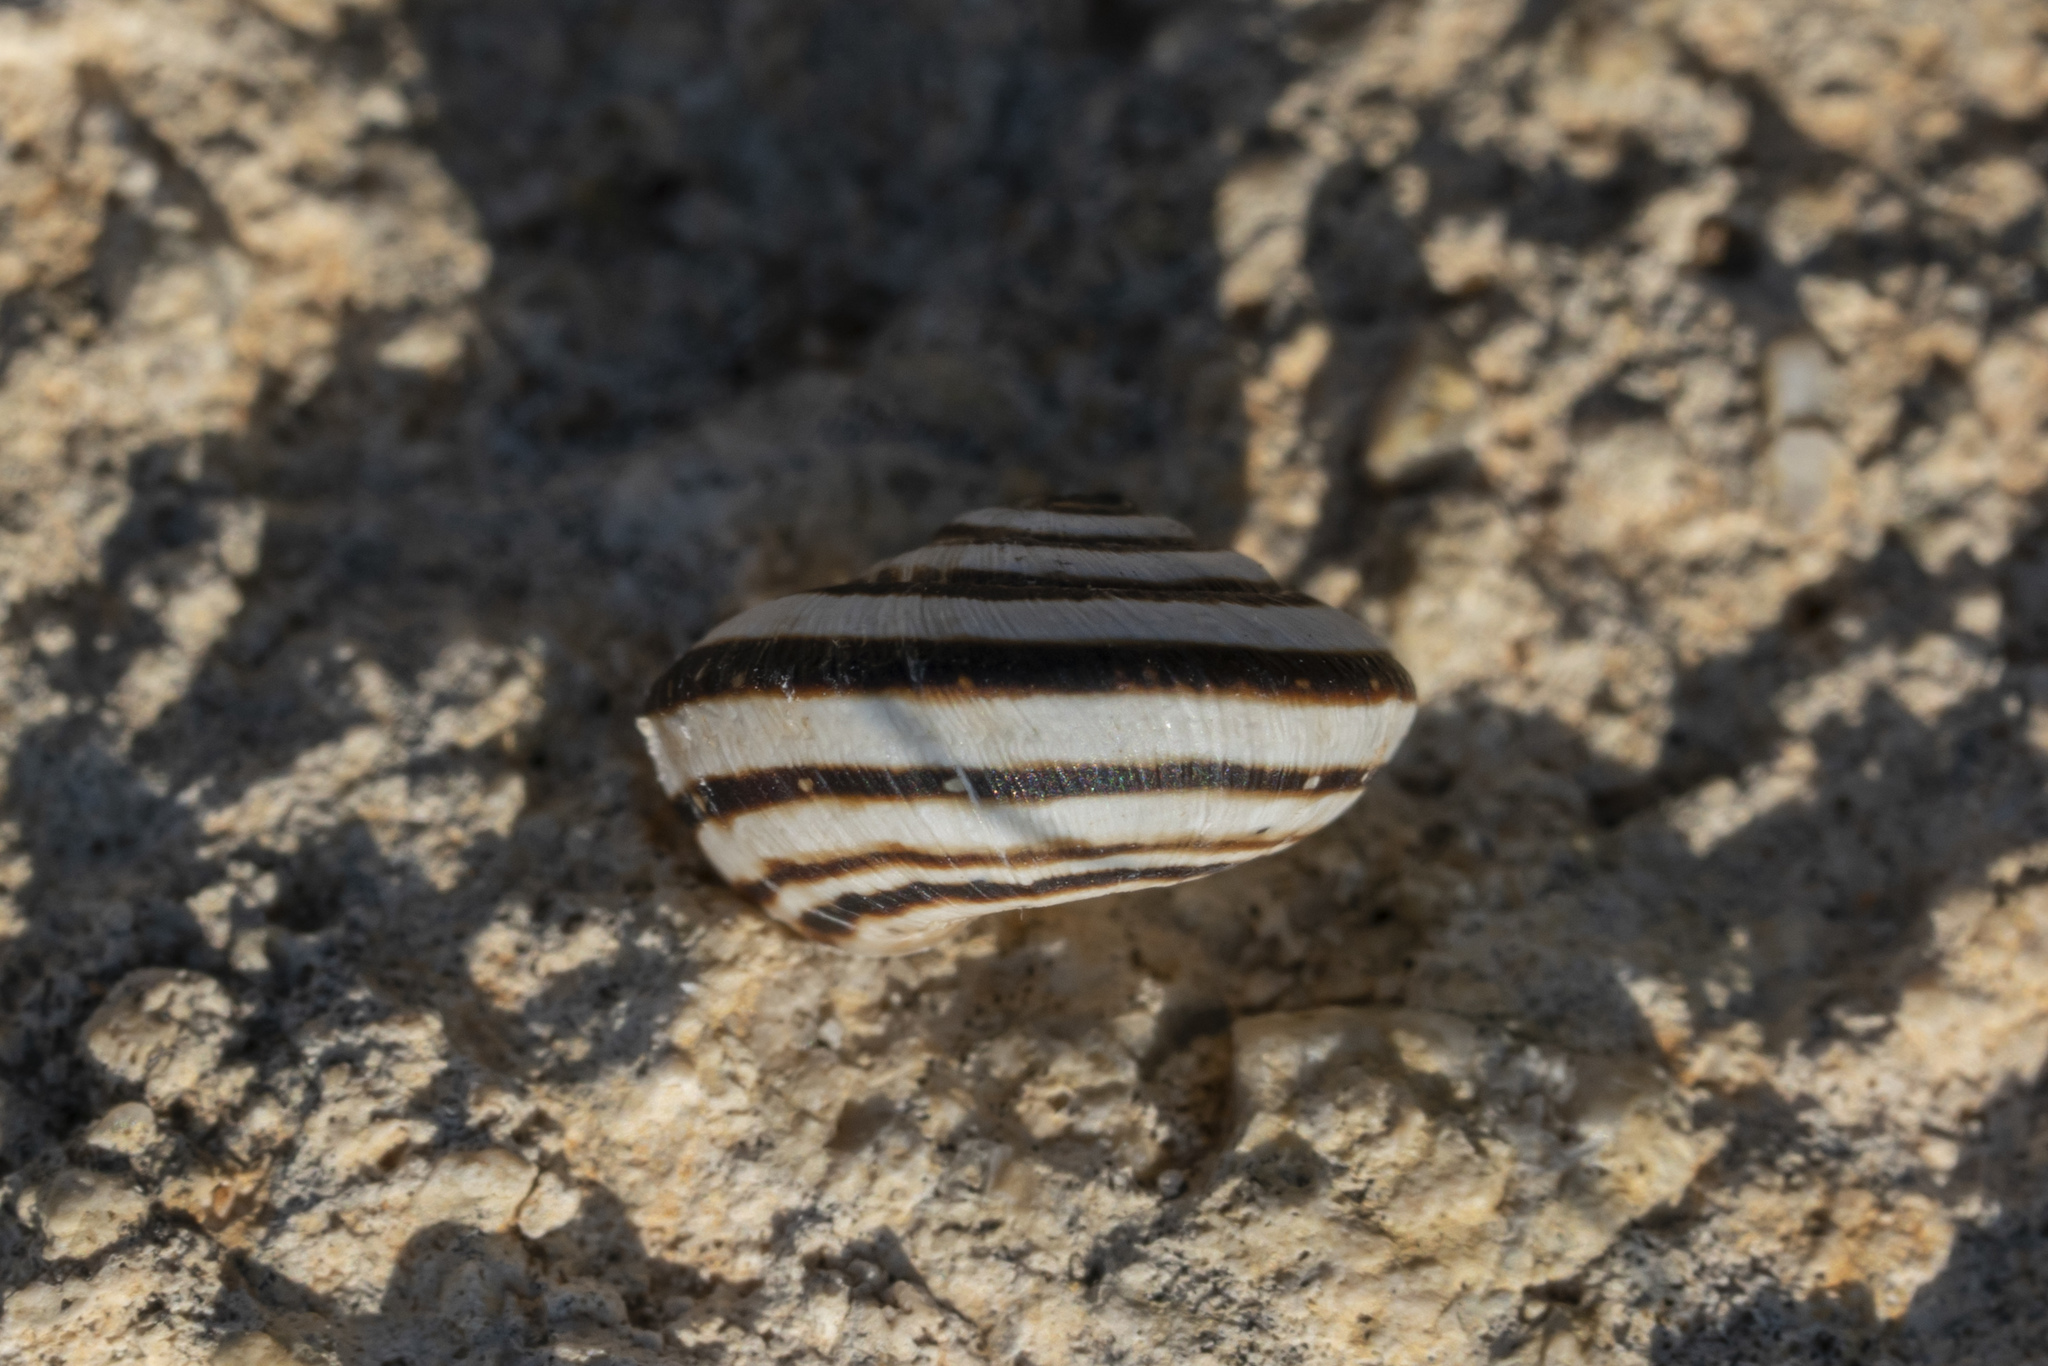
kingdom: Animalia
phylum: Mollusca
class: Gastropoda
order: Stylommatophora
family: Geomitridae
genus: Xerocrassa
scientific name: Xerocrassa cretica
